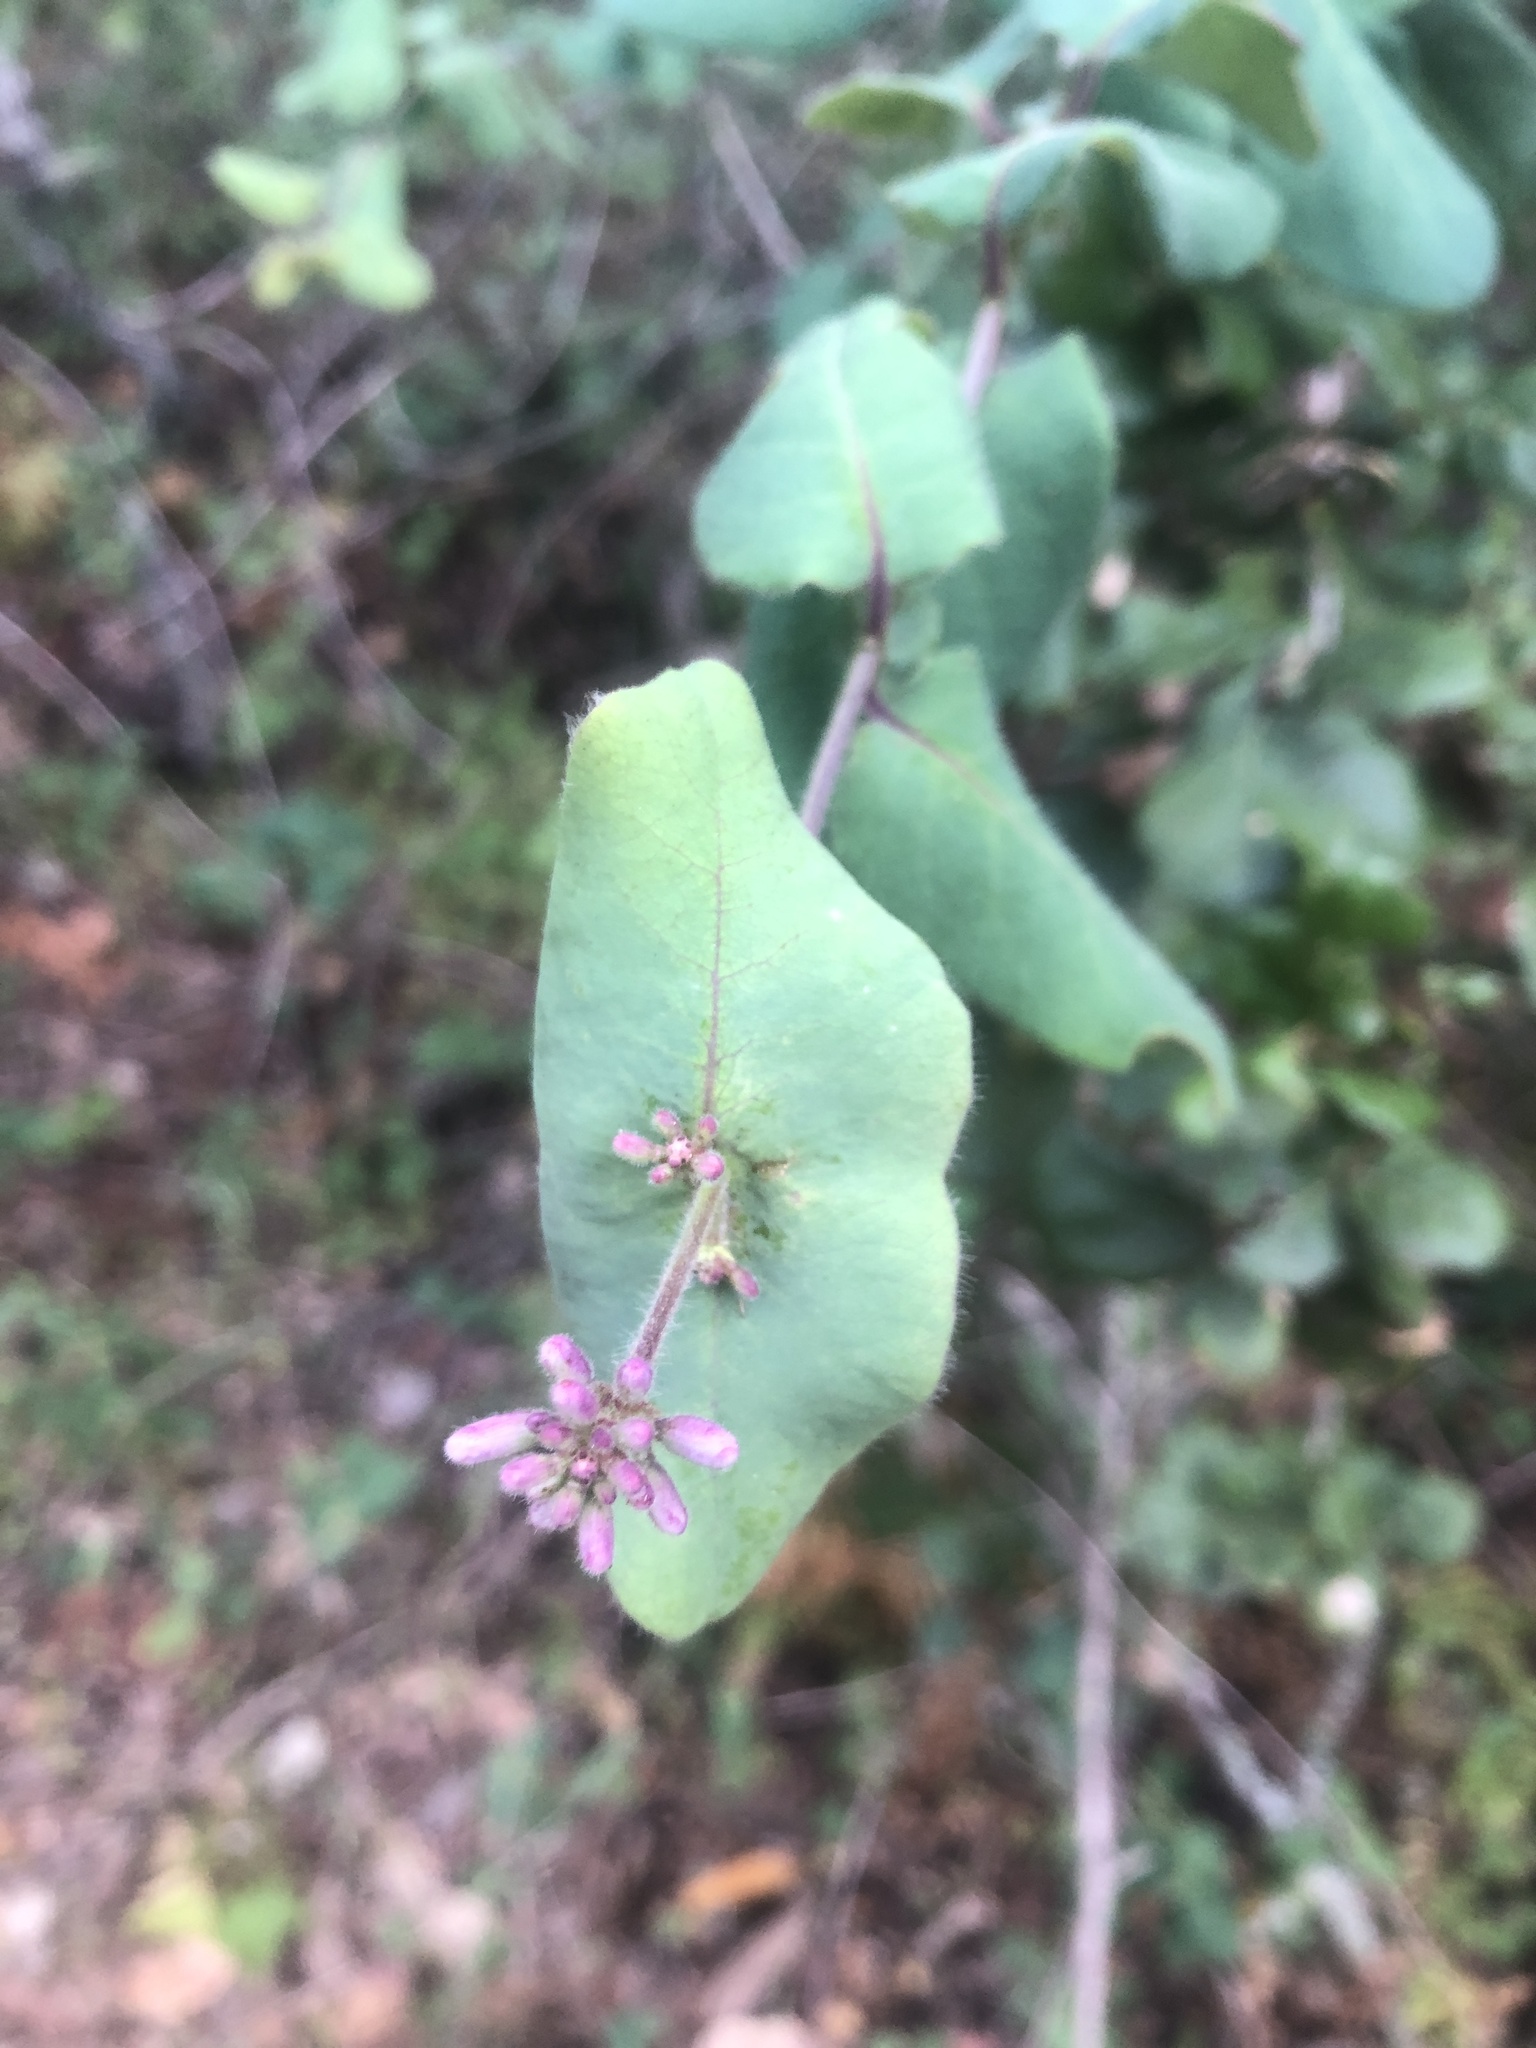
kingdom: Plantae
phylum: Tracheophyta
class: Magnoliopsida
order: Dipsacales
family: Caprifoliaceae
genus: Lonicera
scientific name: Lonicera hispidula
